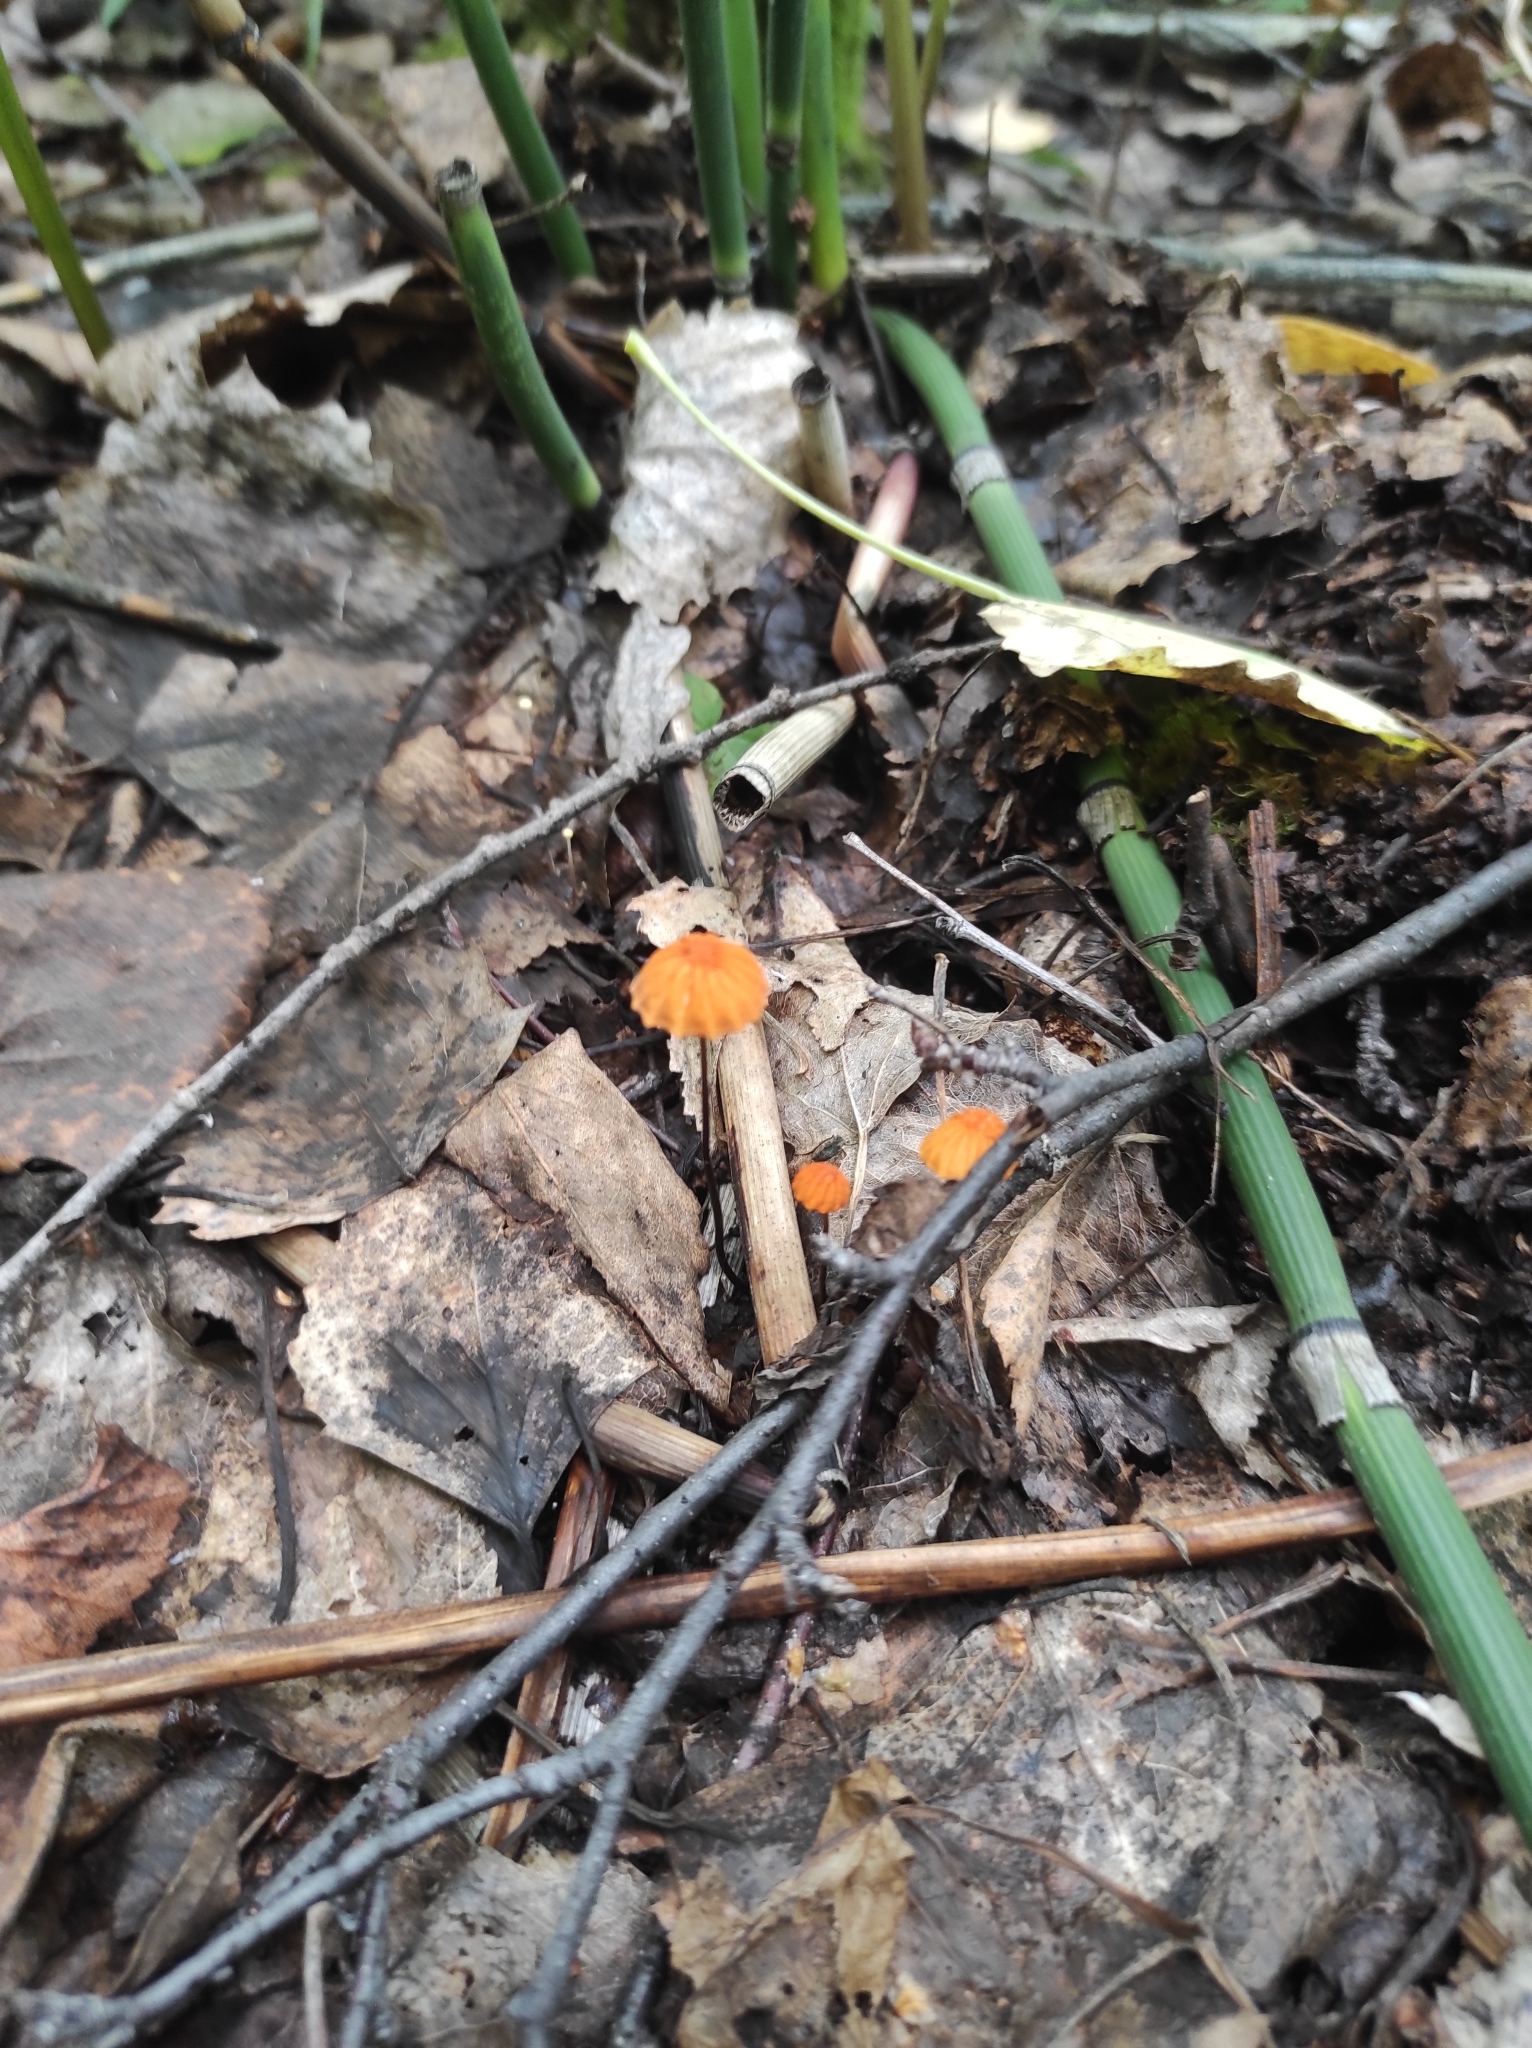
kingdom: Fungi
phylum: Basidiomycota
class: Agaricomycetes
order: Agaricales
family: Marasmiaceae
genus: Marasmius
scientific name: Marasmius siccus
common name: Orange pinwheel
